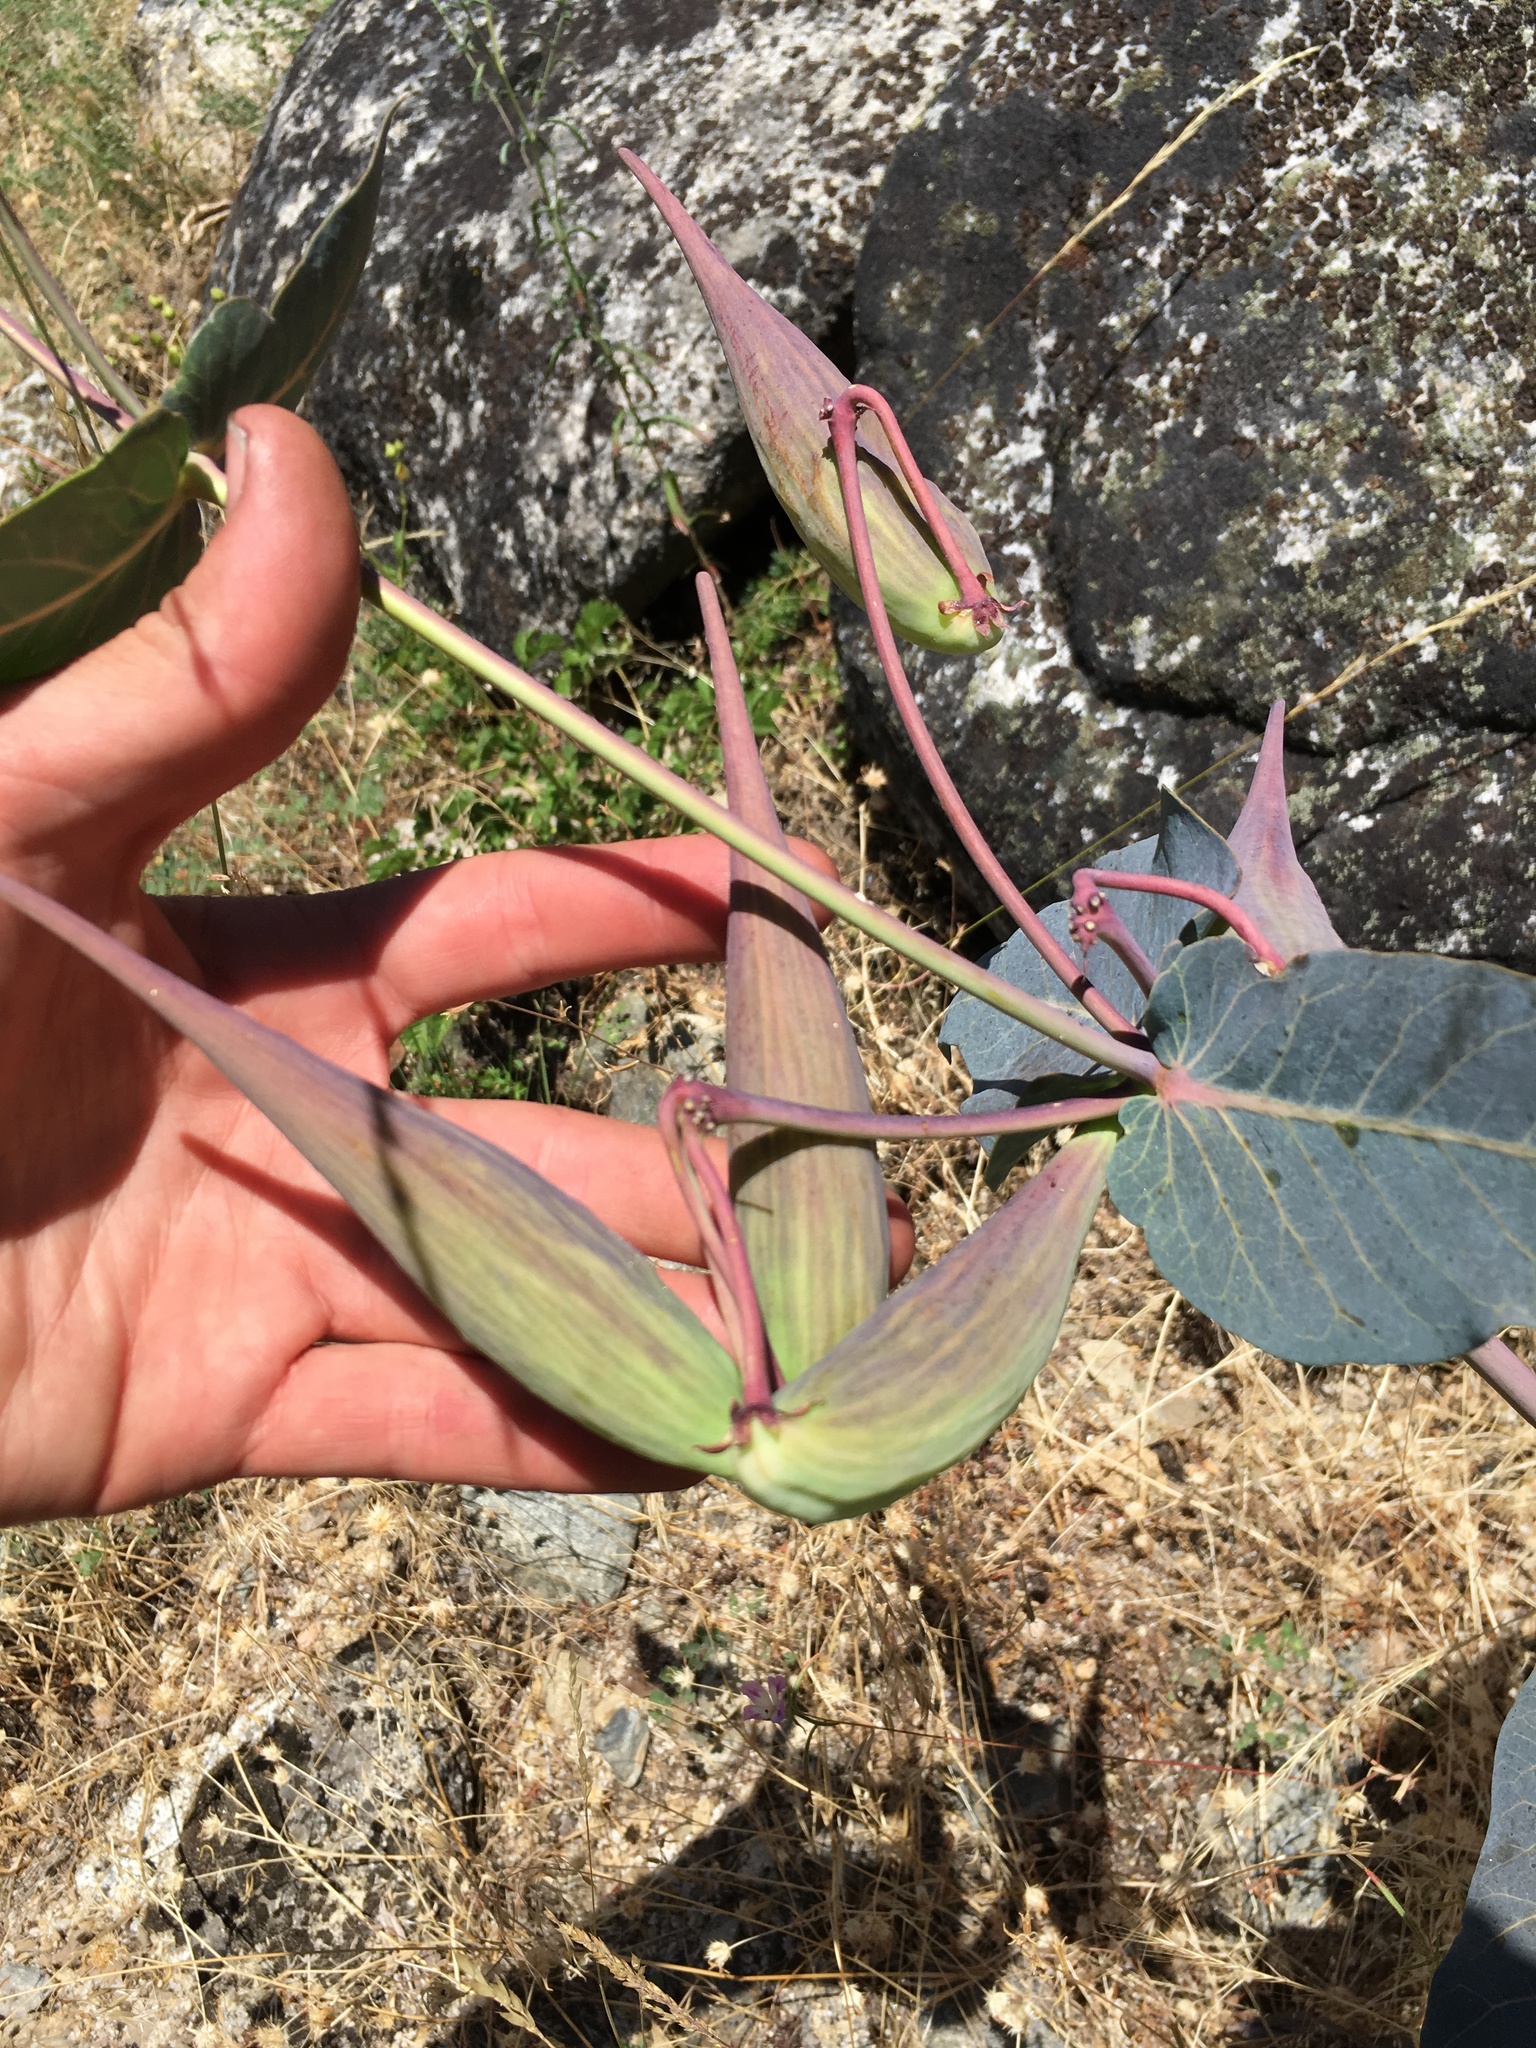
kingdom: Plantae
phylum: Tracheophyta
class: Magnoliopsida
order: Gentianales
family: Apocynaceae
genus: Asclepias
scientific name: Asclepias cordifolia
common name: Purple milkweed
